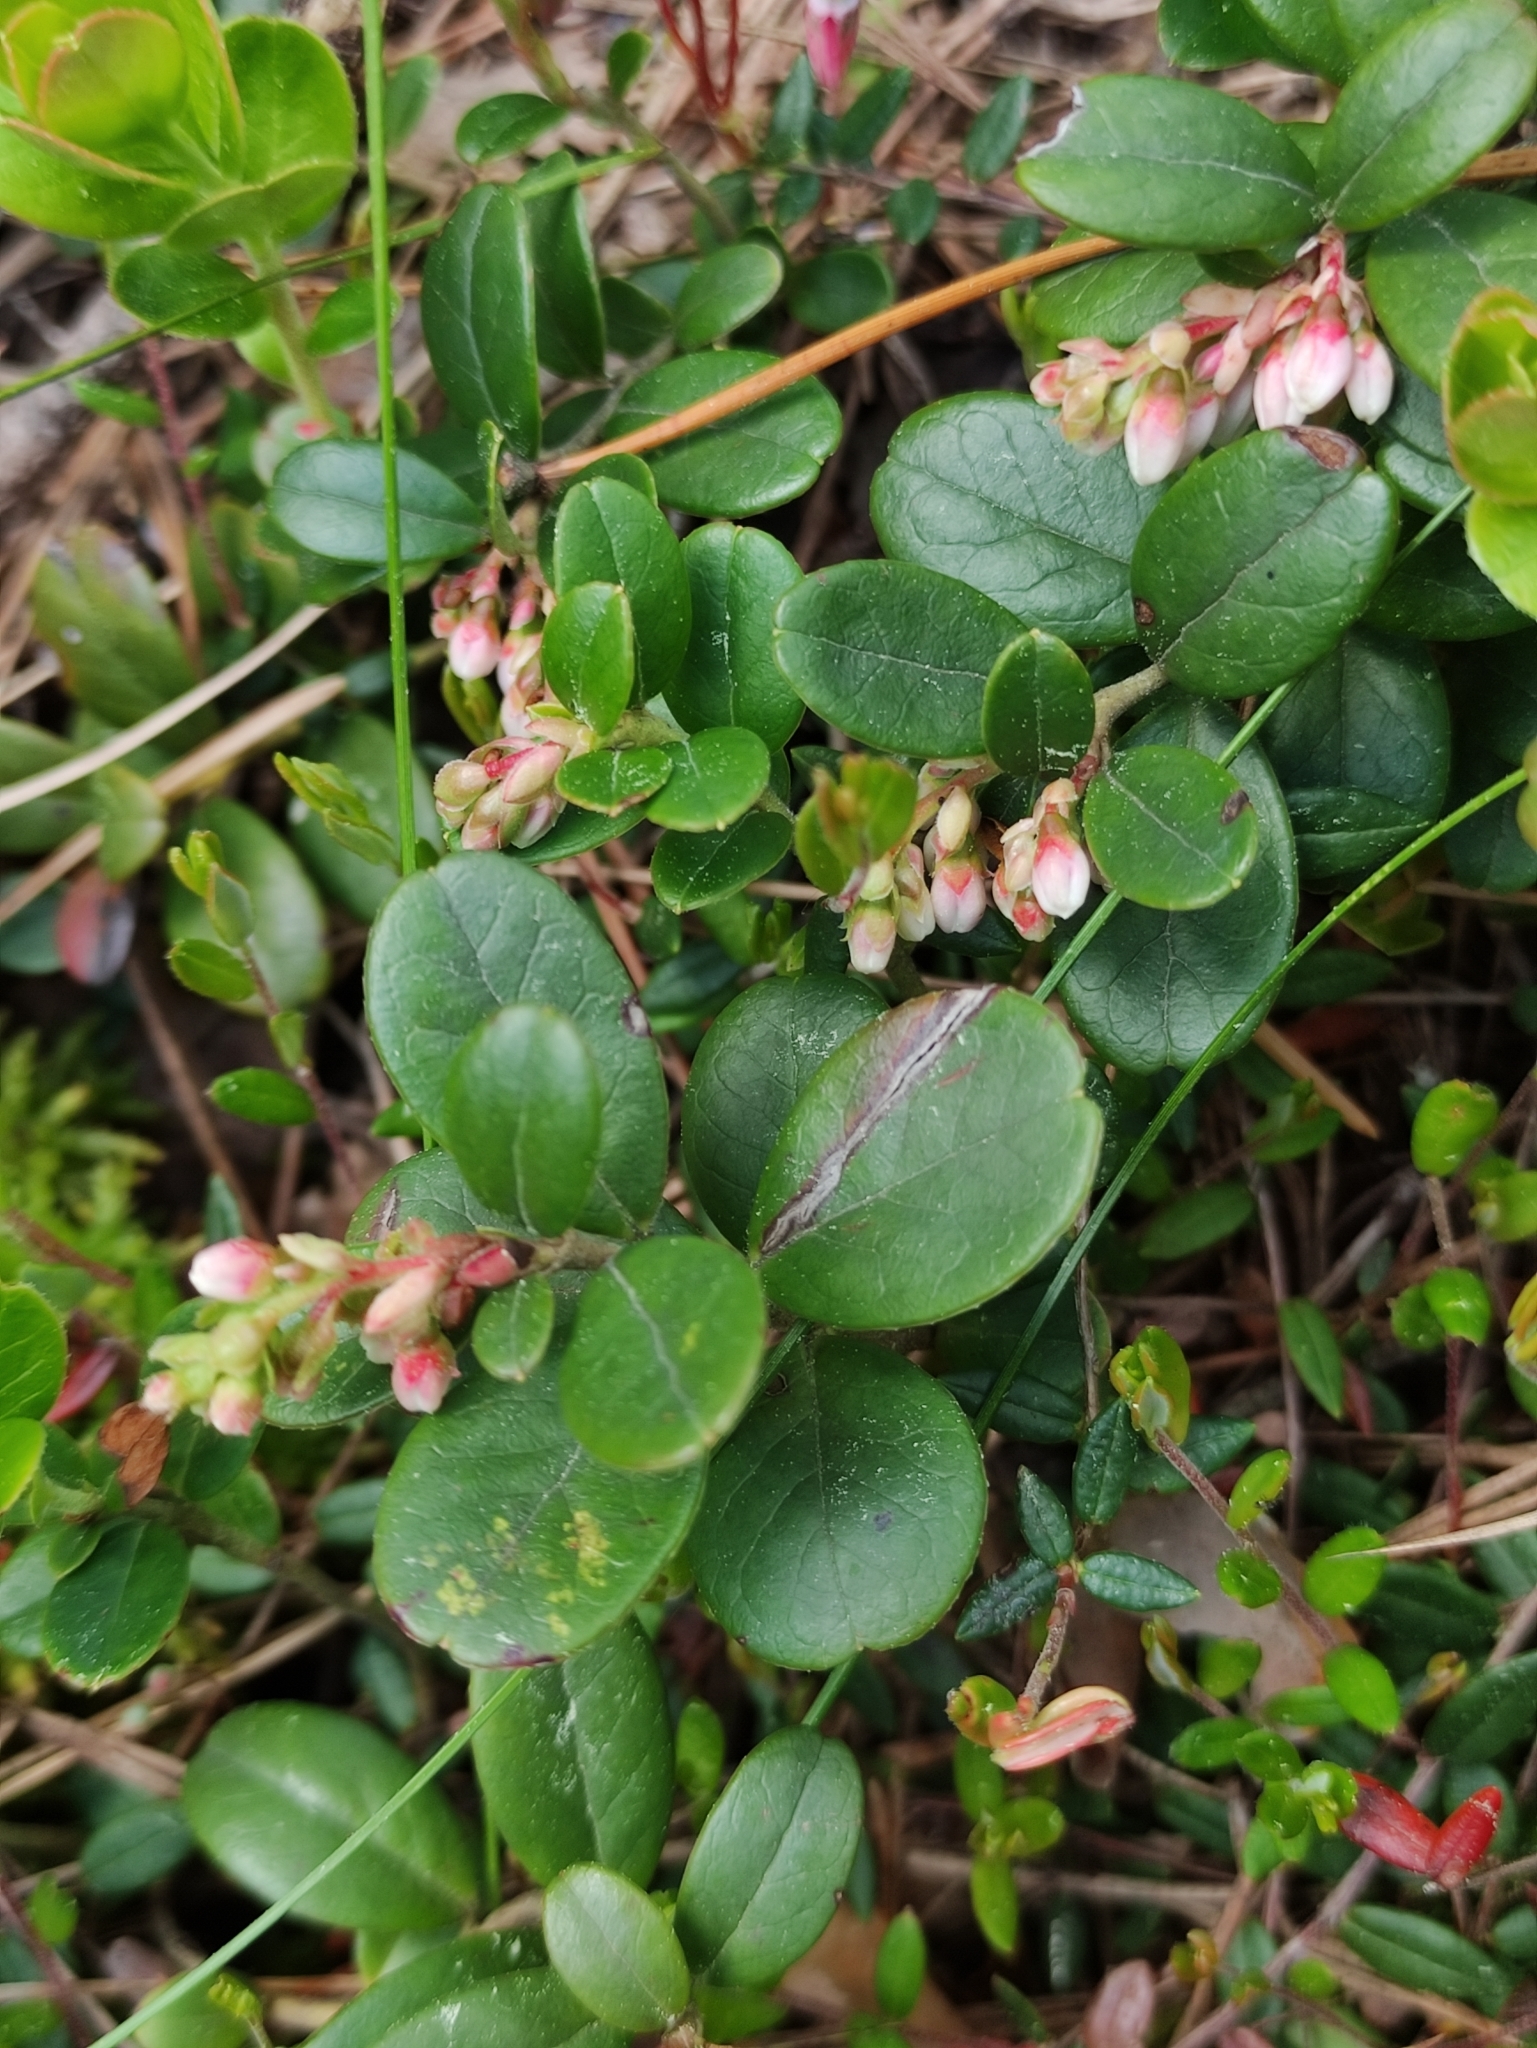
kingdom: Plantae
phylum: Tracheophyta
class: Magnoliopsida
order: Ericales
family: Ericaceae
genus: Vaccinium
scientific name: Vaccinium vitis-idaea
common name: Cowberry
